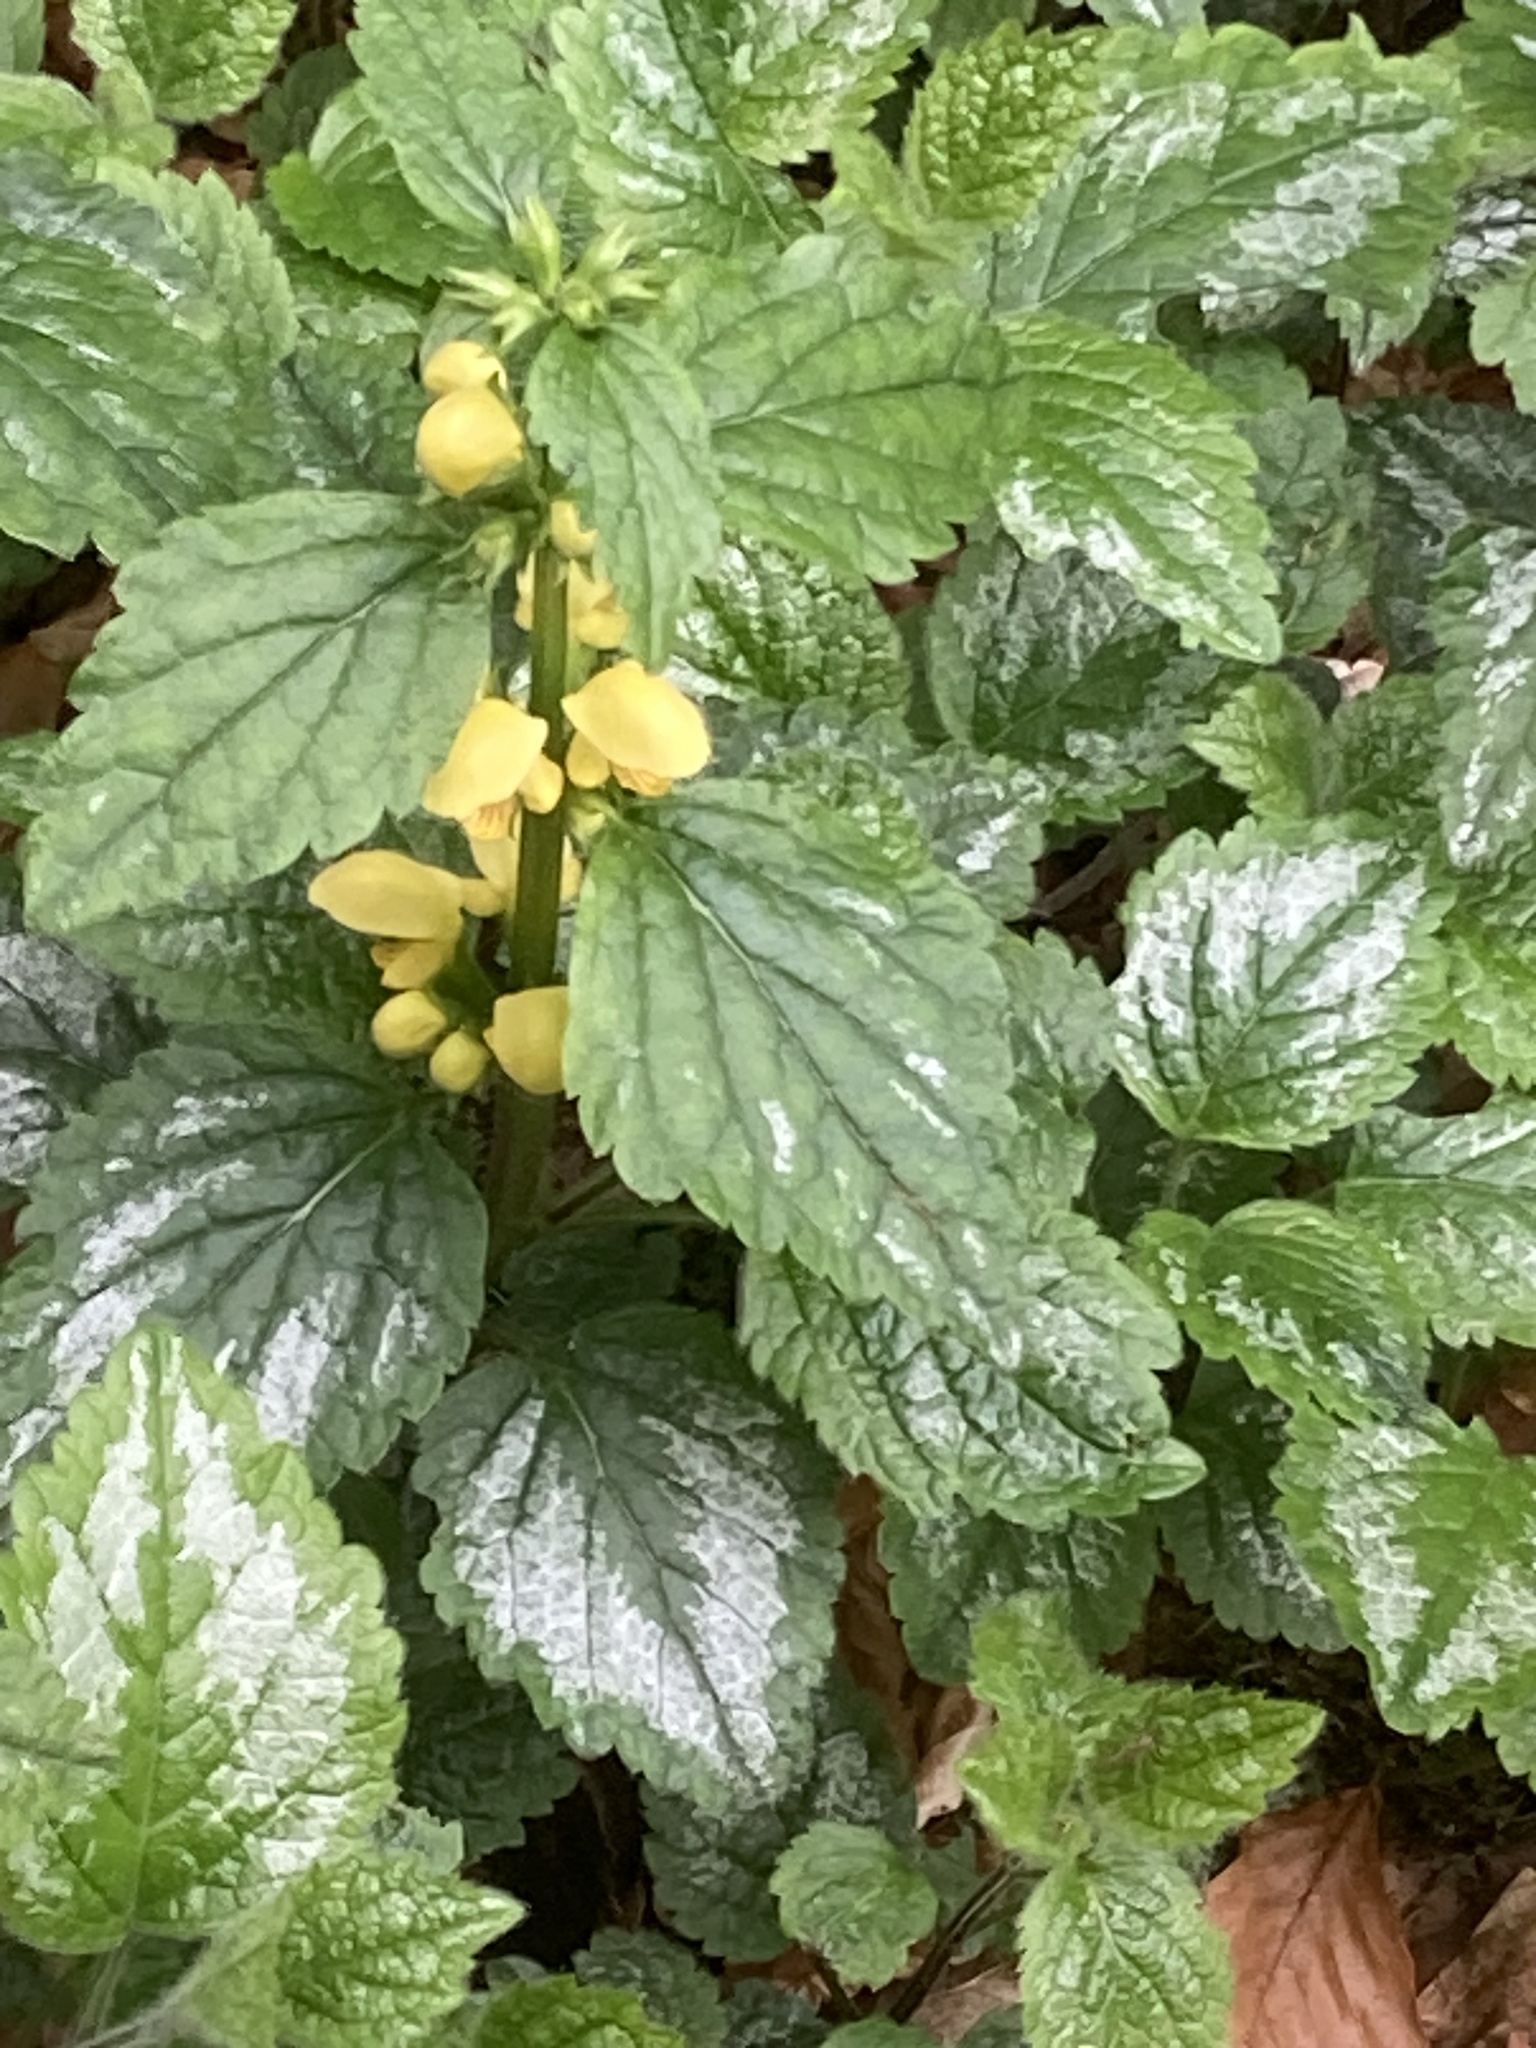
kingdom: Plantae
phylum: Tracheophyta
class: Magnoliopsida
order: Lamiales
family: Lamiaceae
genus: Lamium
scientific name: Lamium galeobdolon
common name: Yellow archangel
